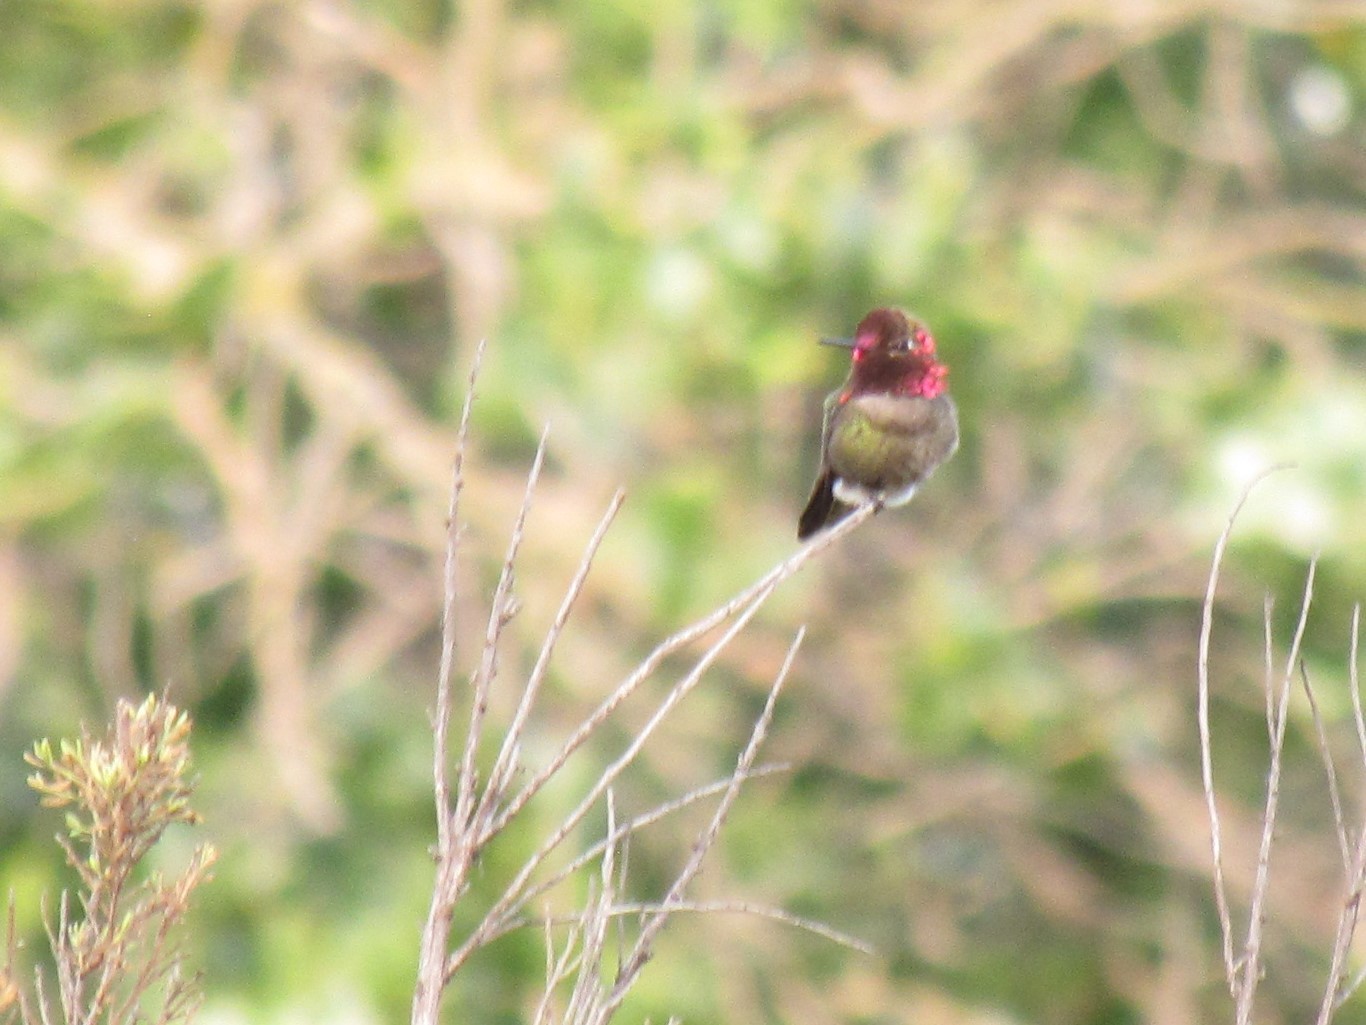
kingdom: Animalia
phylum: Chordata
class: Aves
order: Apodiformes
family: Trochilidae
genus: Calypte
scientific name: Calypte anna
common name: Anna's hummingbird
